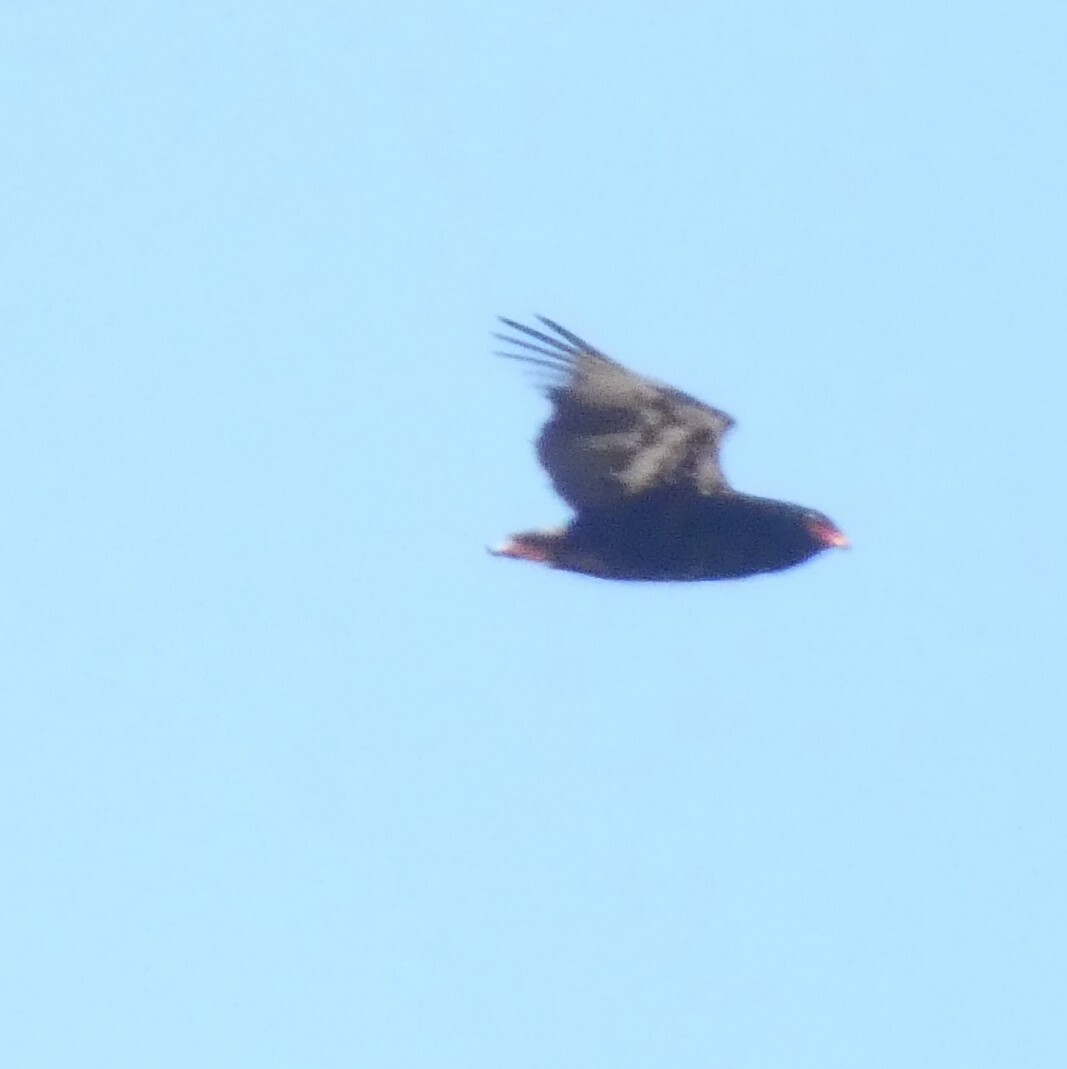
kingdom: Animalia
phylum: Chordata
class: Aves
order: Accipitriformes
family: Accipitridae
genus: Terathopius
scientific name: Terathopius ecaudatus
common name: Bateleur
